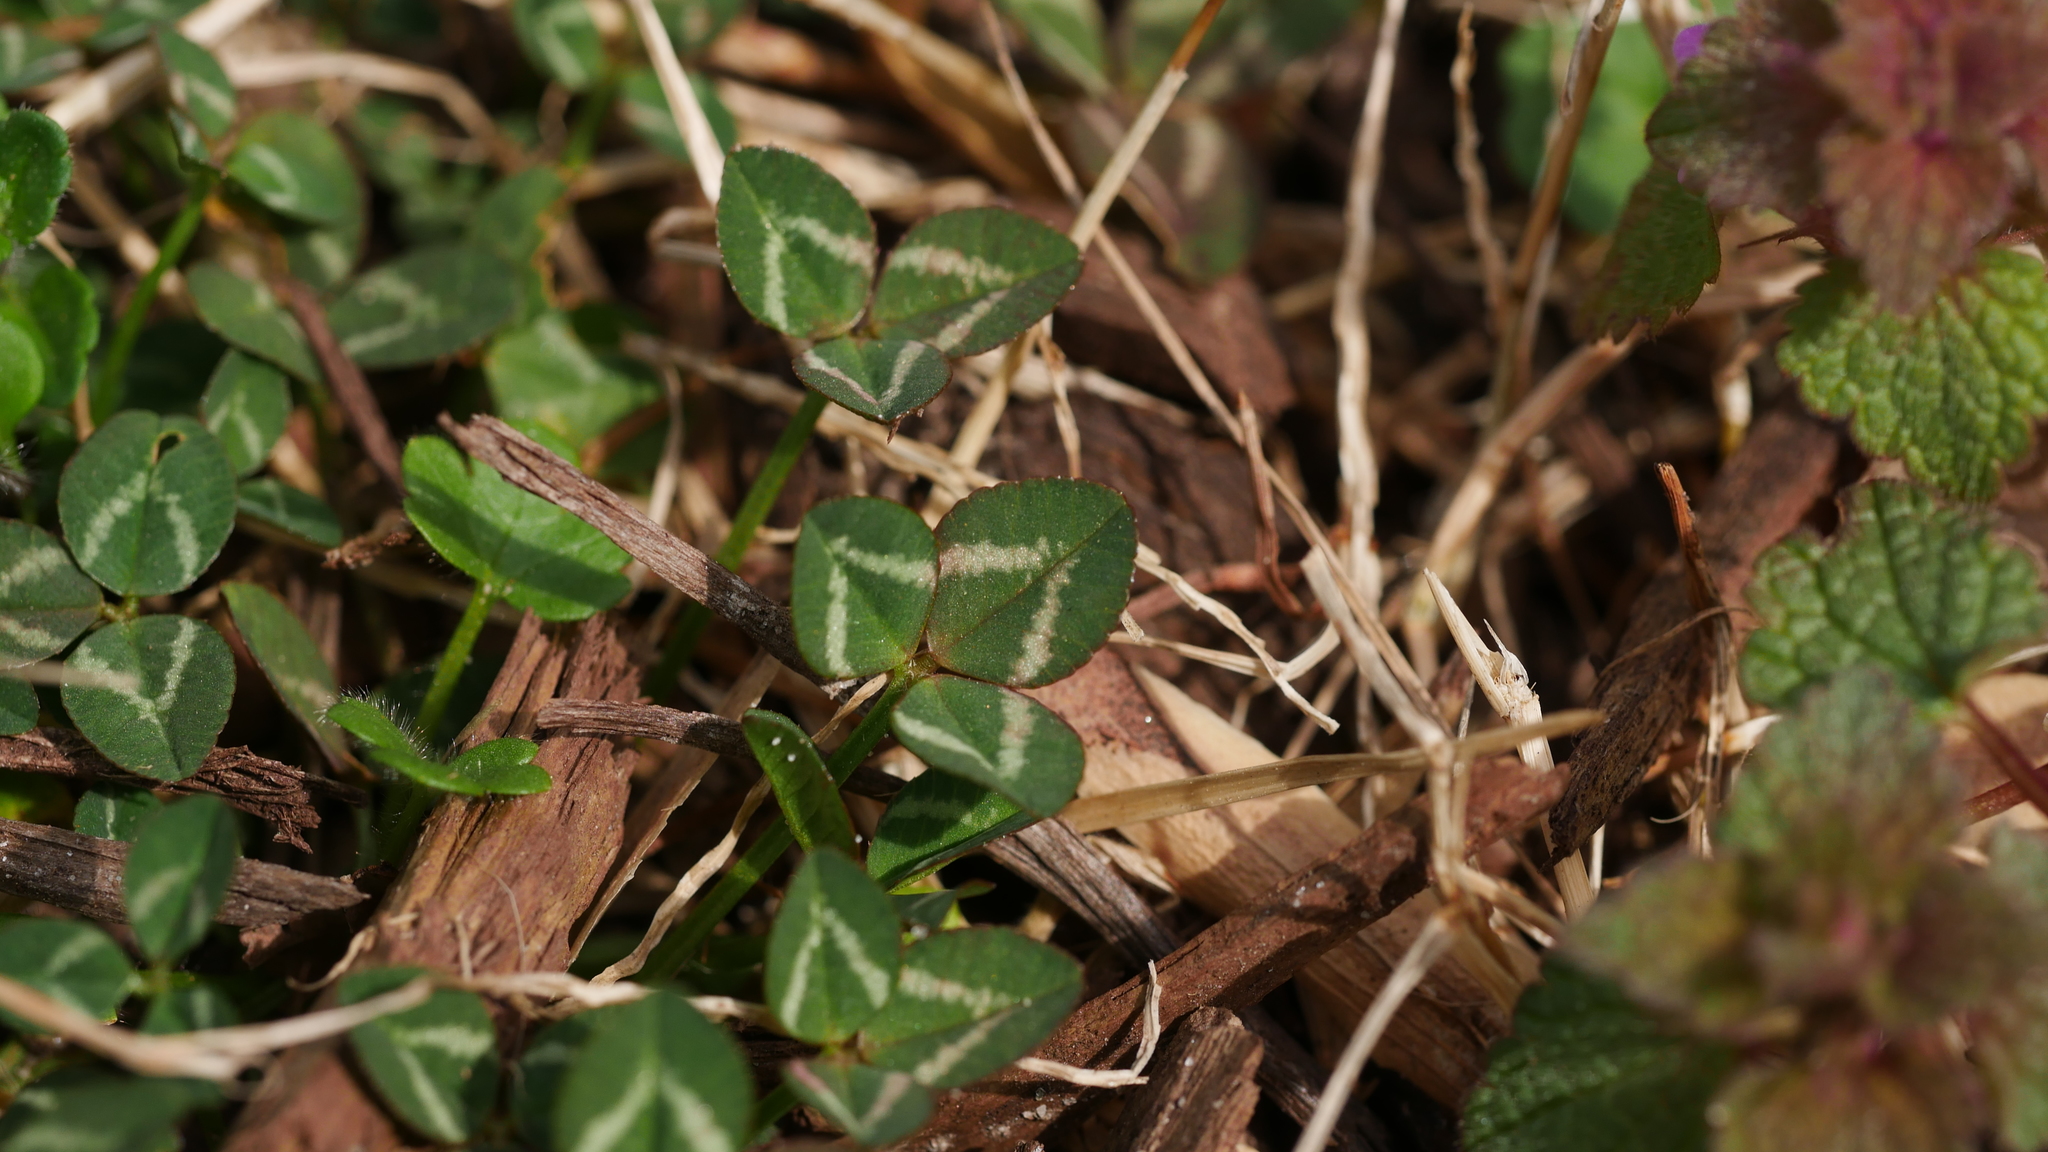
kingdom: Plantae
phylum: Tracheophyta
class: Magnoliopsida
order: Fabales
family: Fabaceae
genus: Trifolium
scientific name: Trifolium repens
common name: White clover
